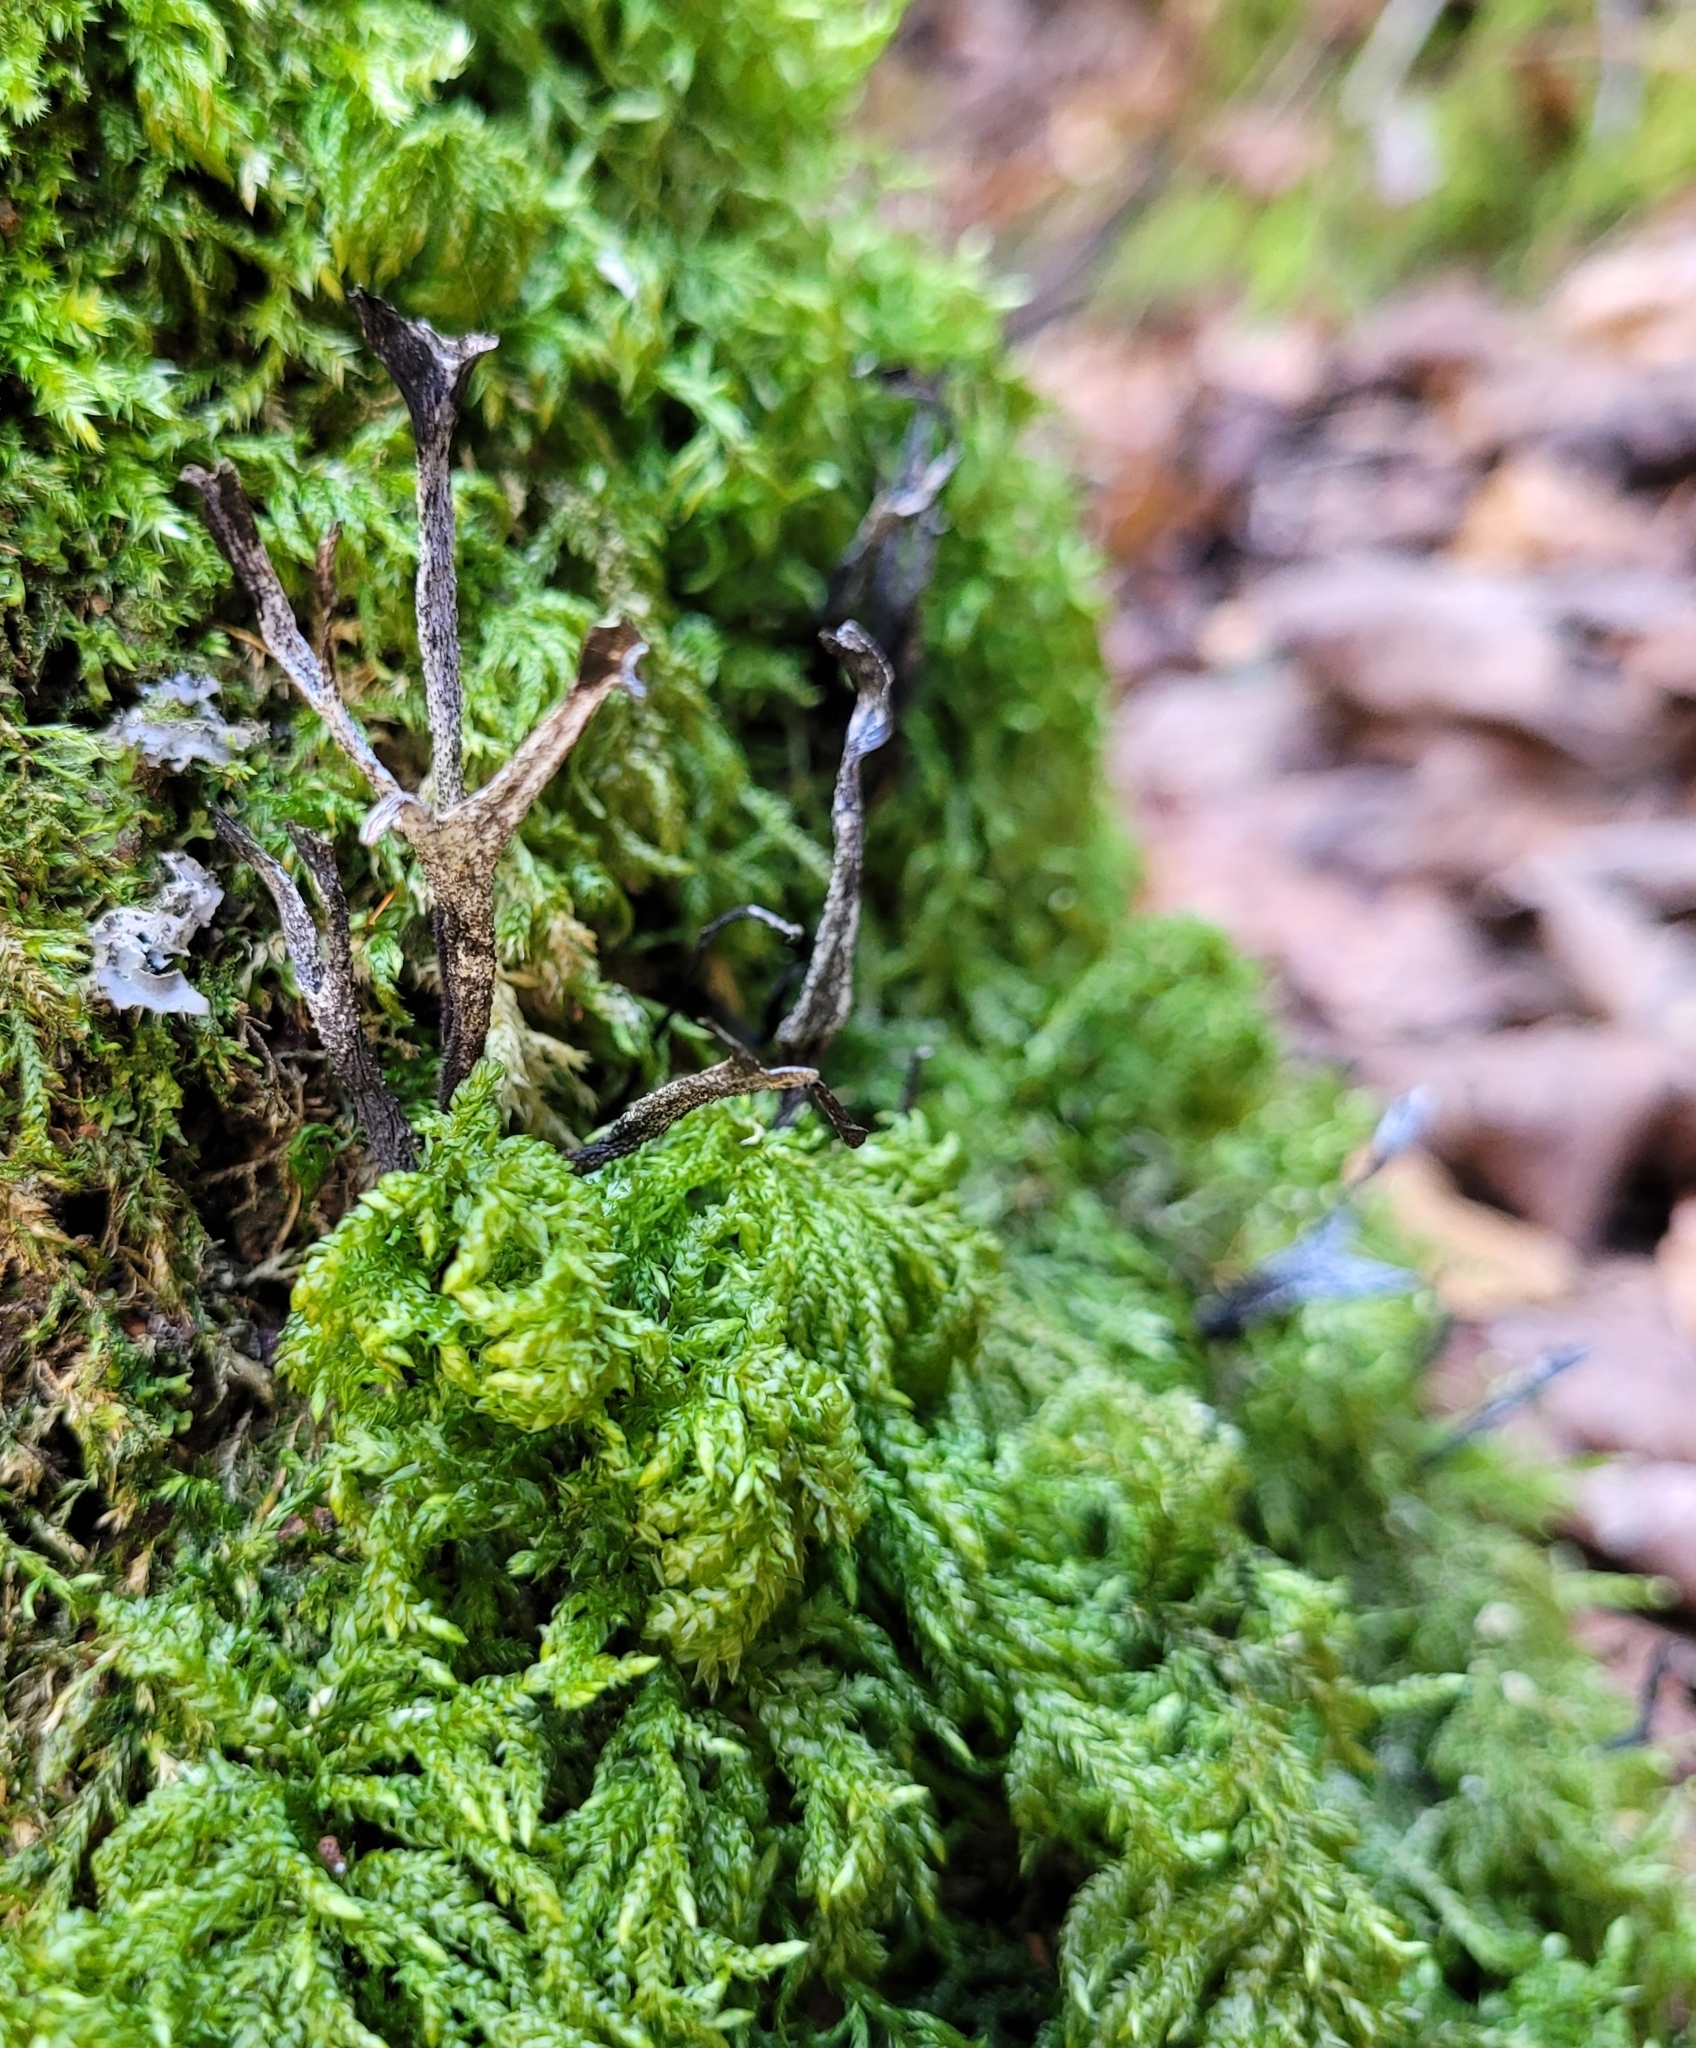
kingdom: Fungi
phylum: Ascomycota
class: Sordariomycetes
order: Xylariales
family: Xylariaceae
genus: Xylaria
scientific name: Xylaria hypoxylon
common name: Candle-snuff fungus
